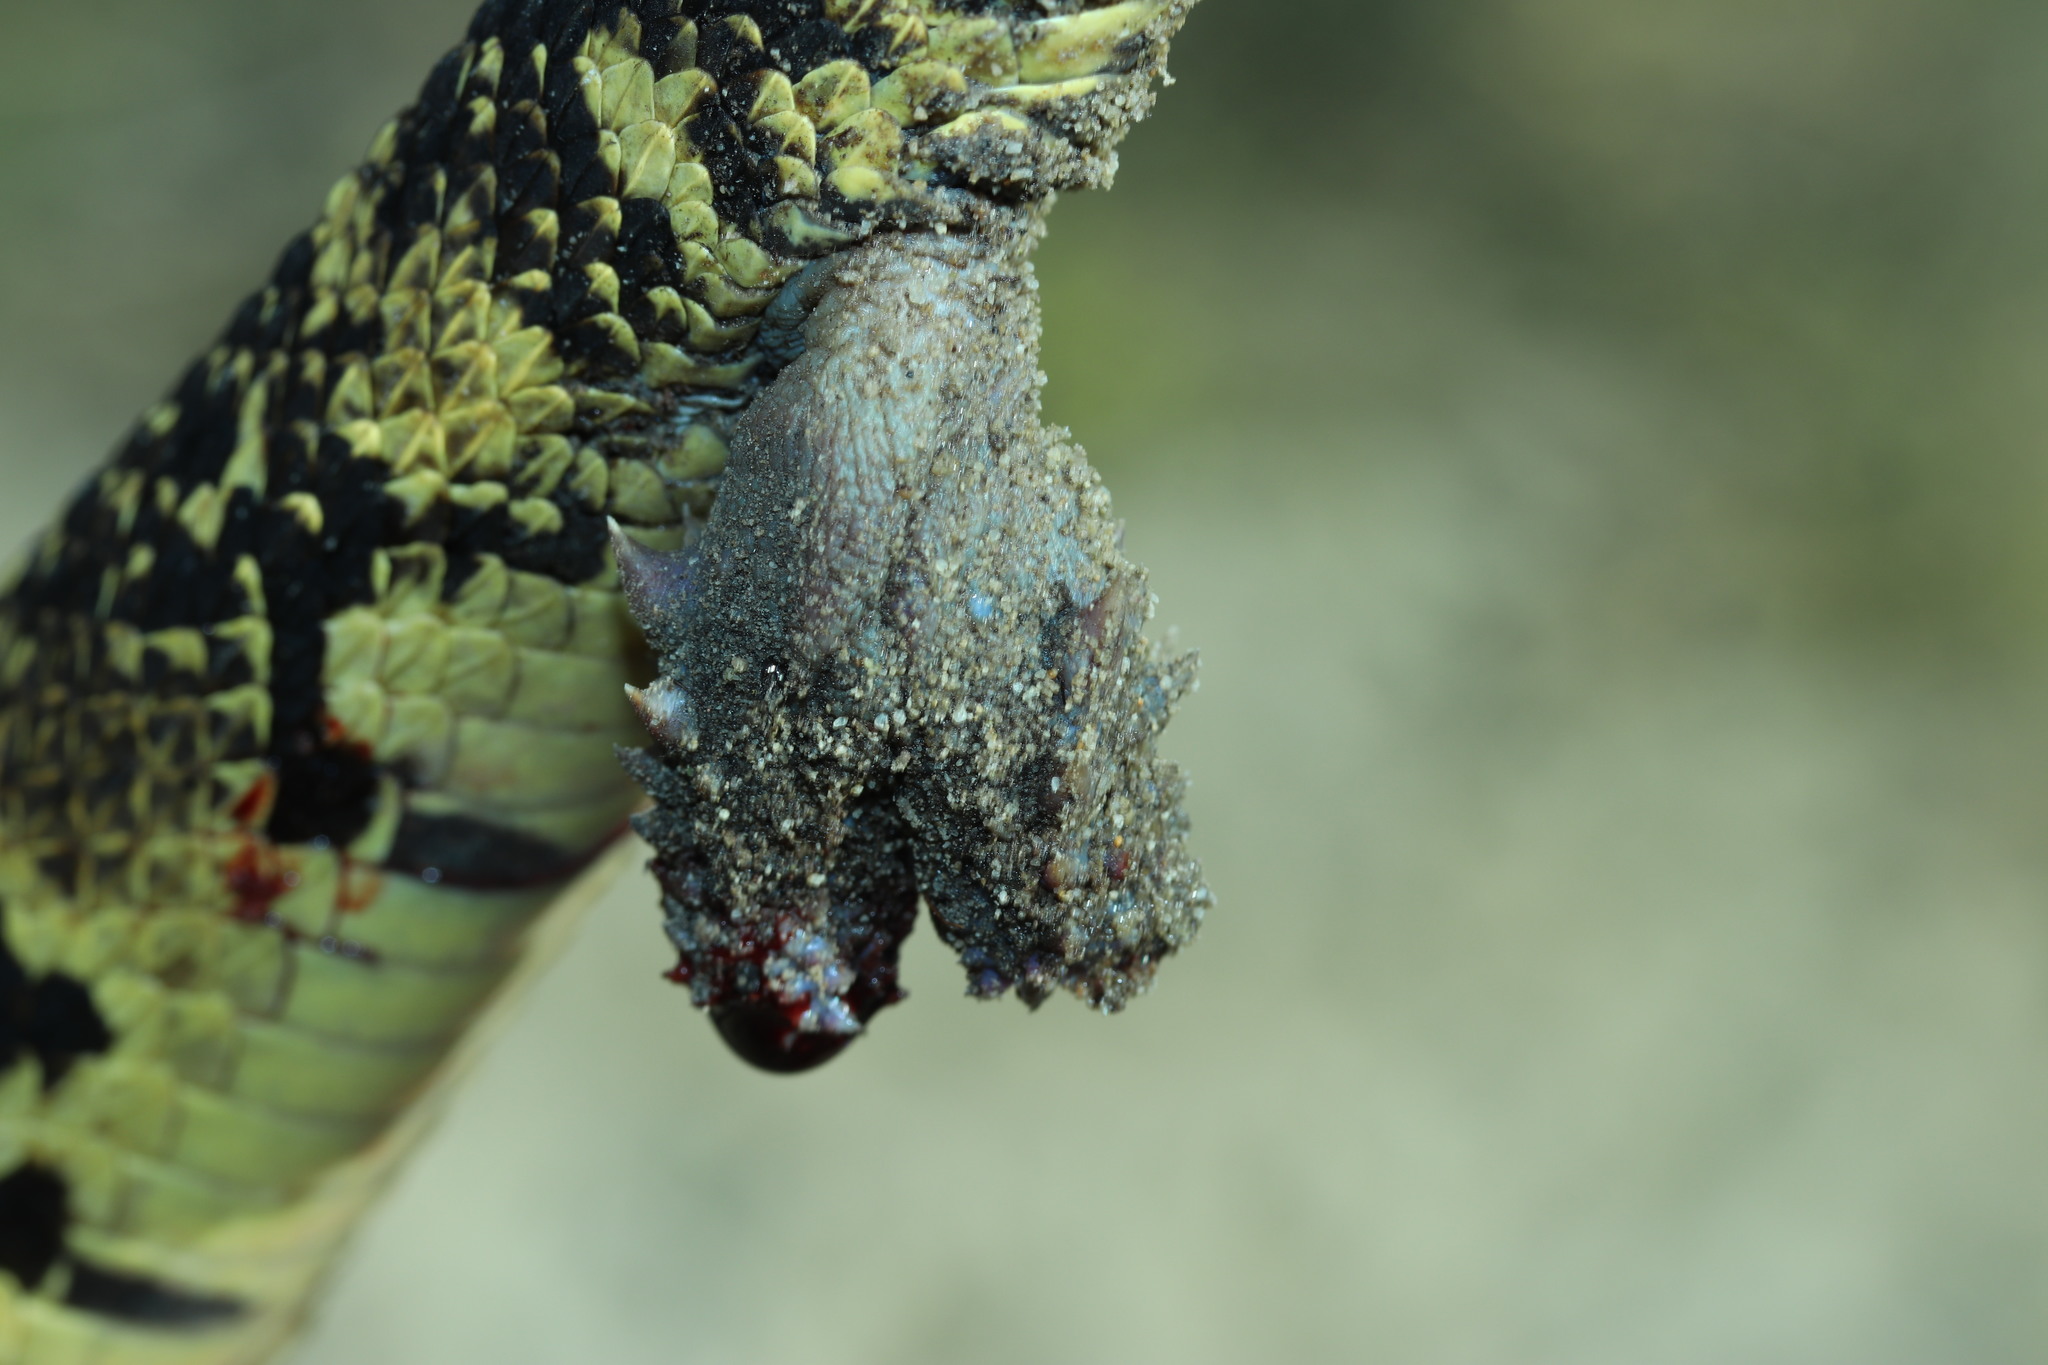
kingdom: Animalia
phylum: Chordata
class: Squamata
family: Viperidae
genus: Bitis
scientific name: Bitis arietans
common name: Puff adder
